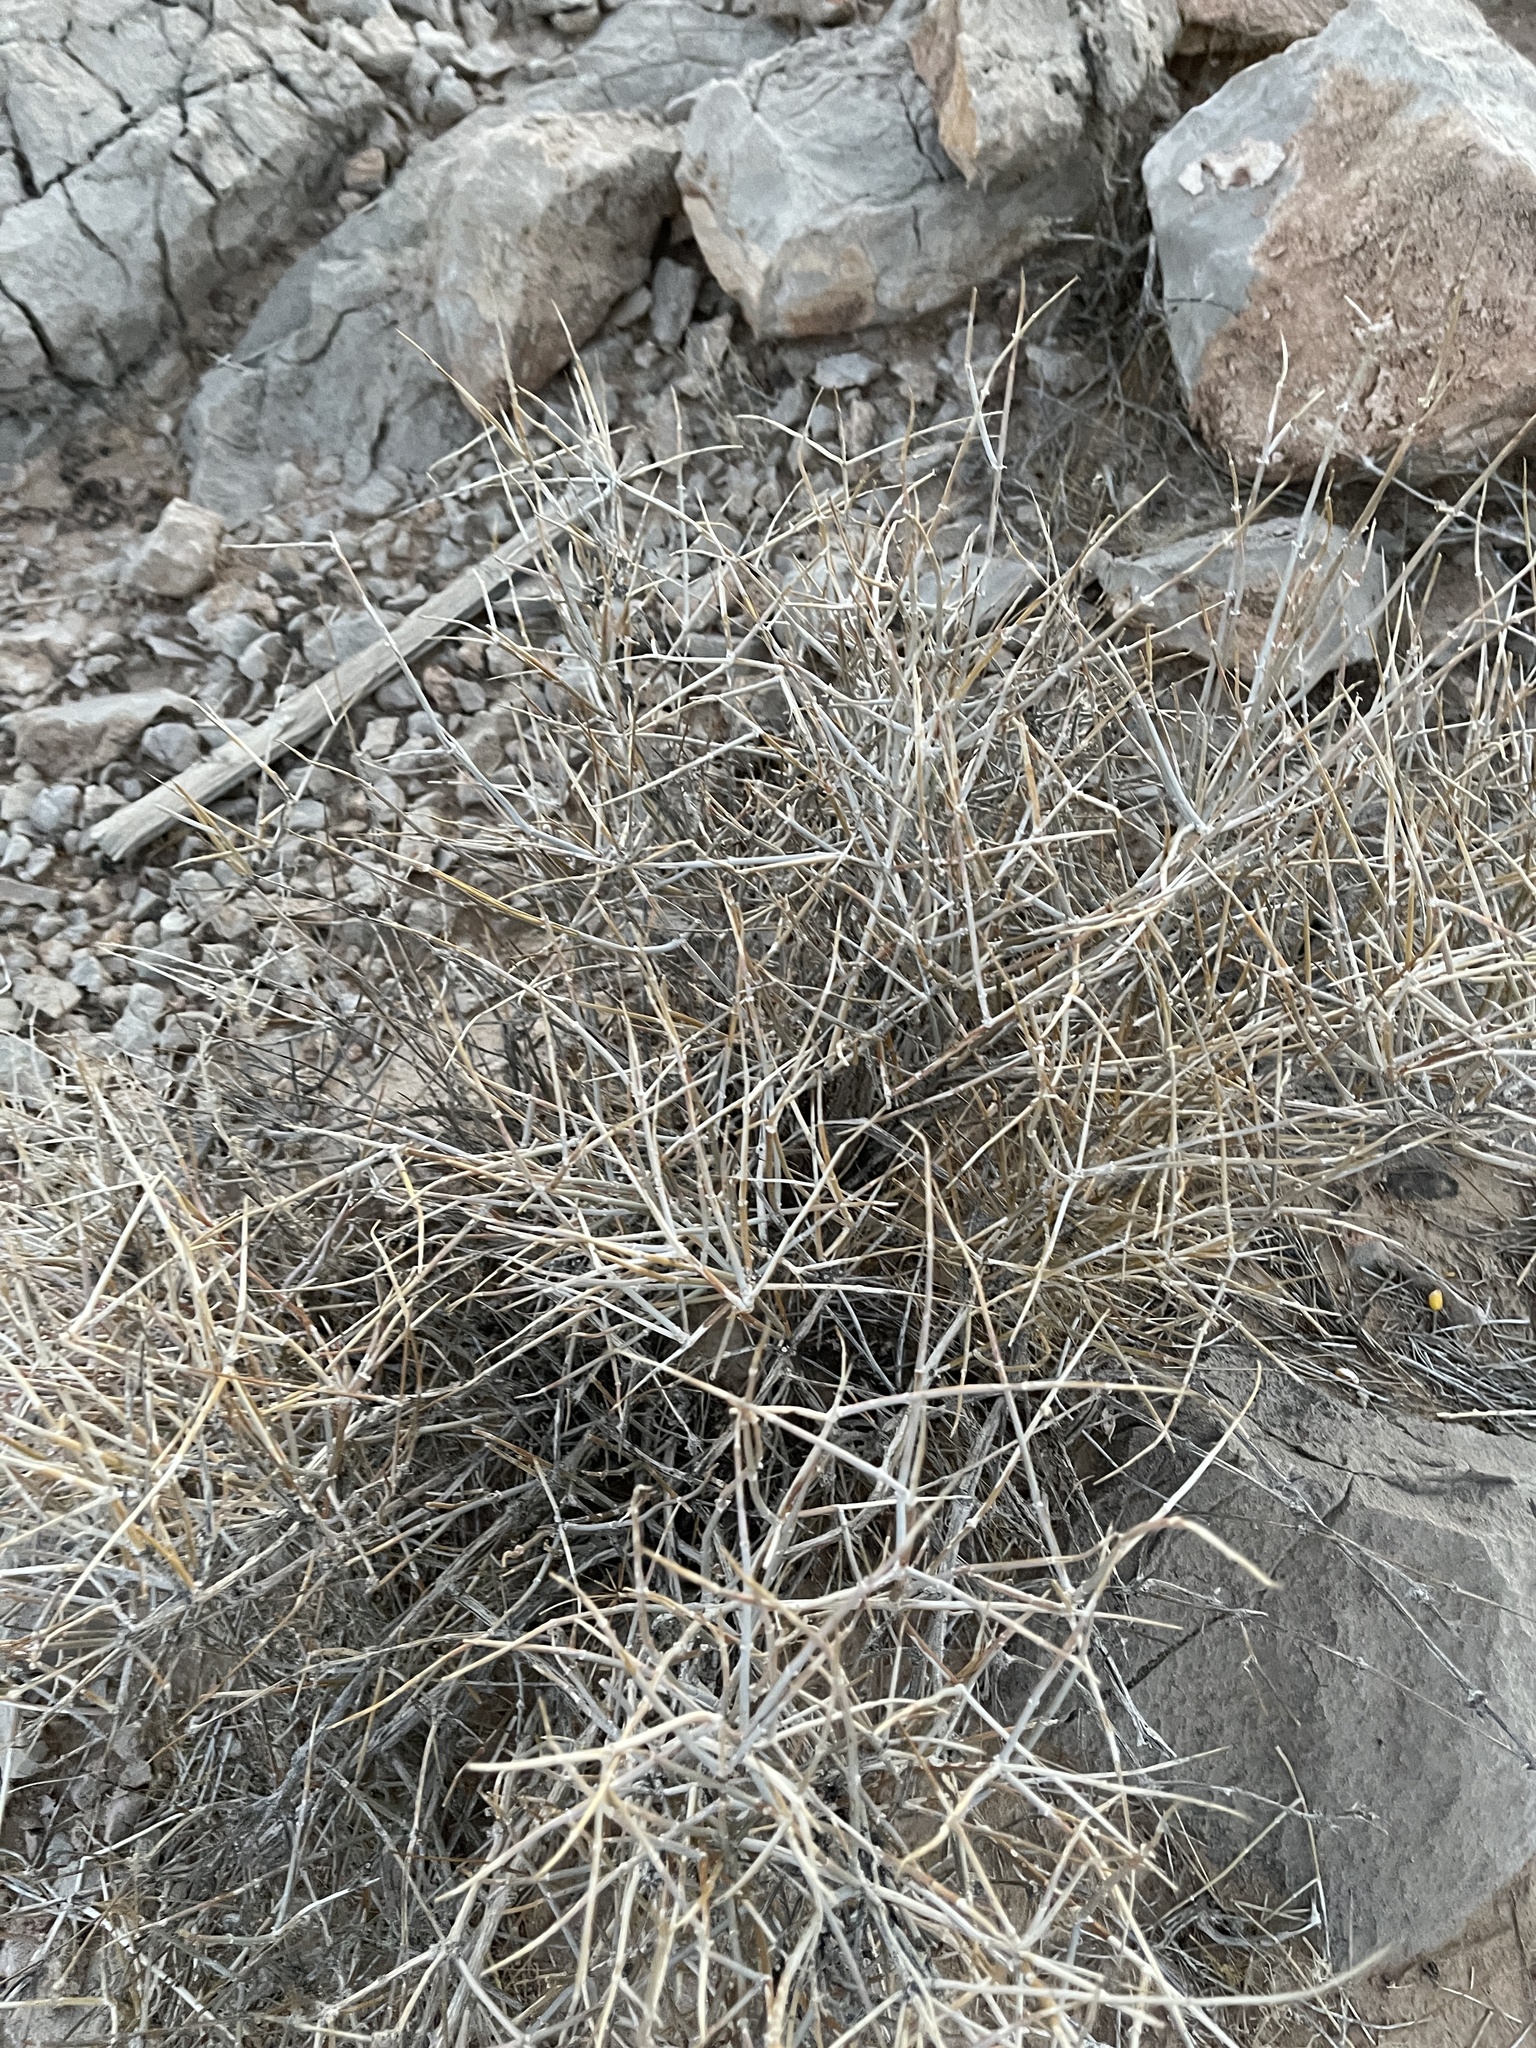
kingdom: Plantae
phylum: Tracheophyta
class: Gnetopsida
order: Ephedrales
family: Ephedraceae
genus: Ephedra
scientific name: Ephedra nevadensis
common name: Gray ephedra
